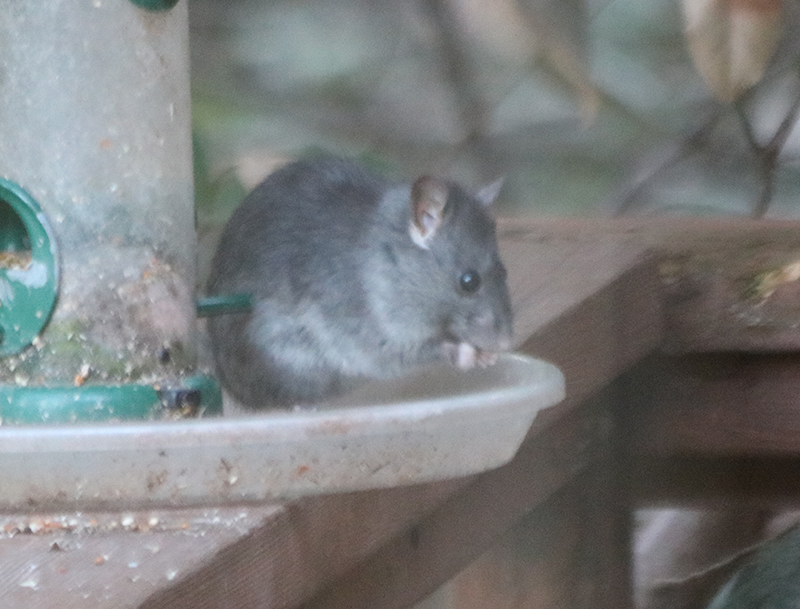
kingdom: Animalia
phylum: Chordata
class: Mammalia
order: Rodentia
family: Muridae
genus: Rattus
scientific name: Rattus rattus
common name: Black rat
